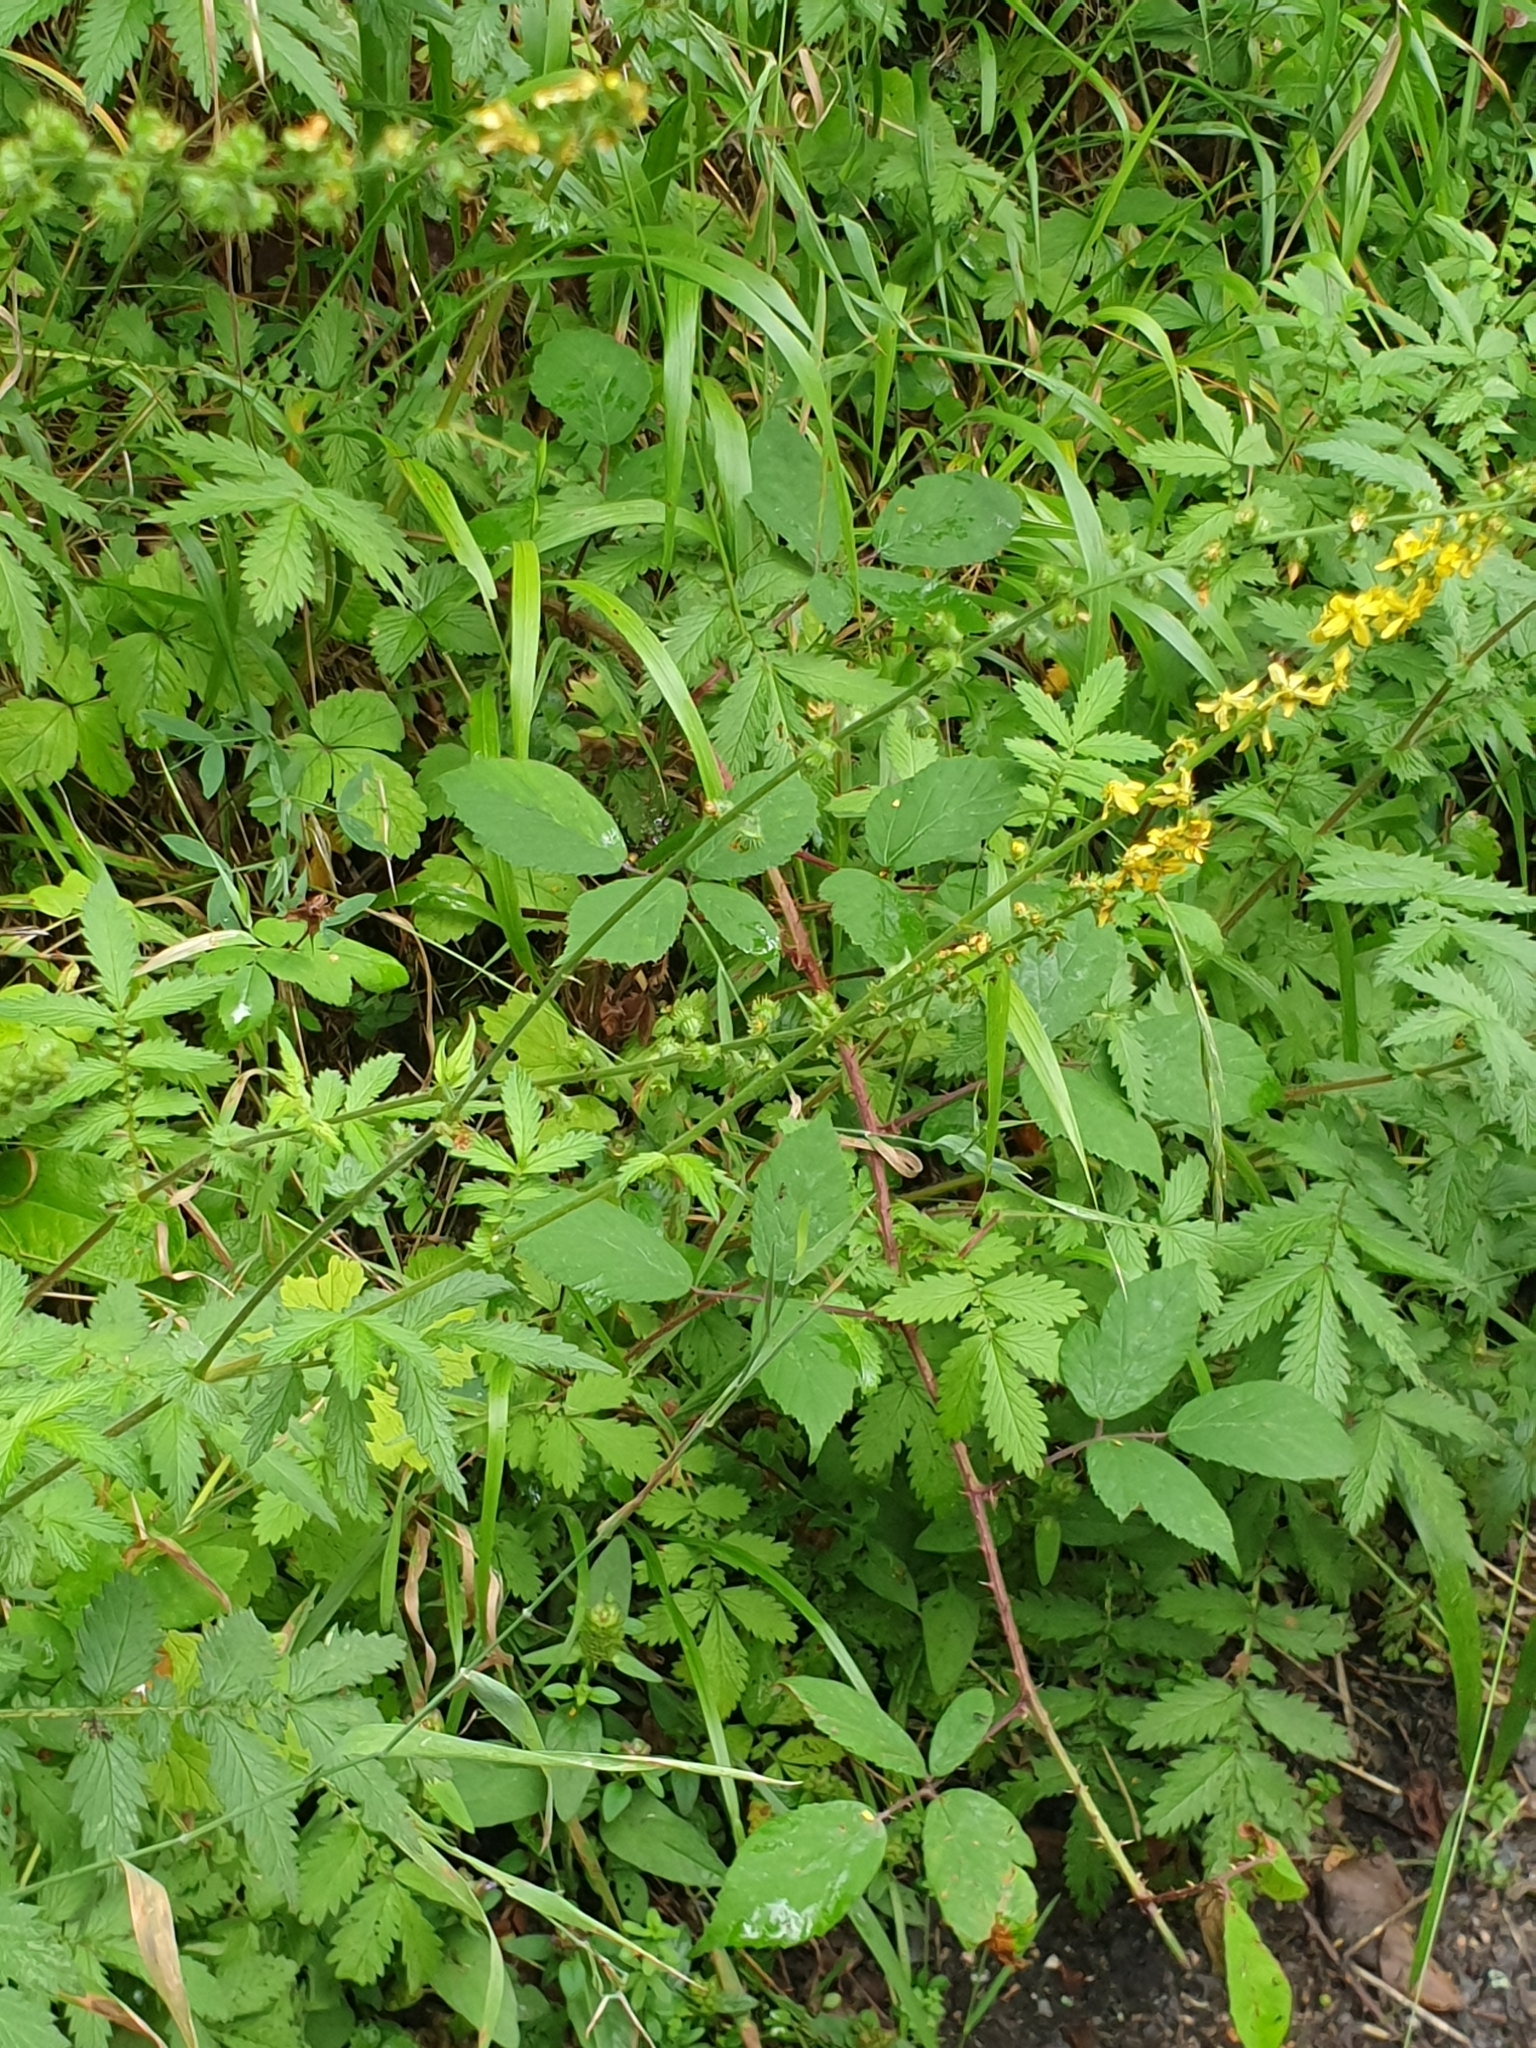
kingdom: Plantae
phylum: Tracheophyta
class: Magnoliopsida
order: Rosales
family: Rosaceae
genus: Agrimonia
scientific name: Agrimonia eupatoria
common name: Agrimony
